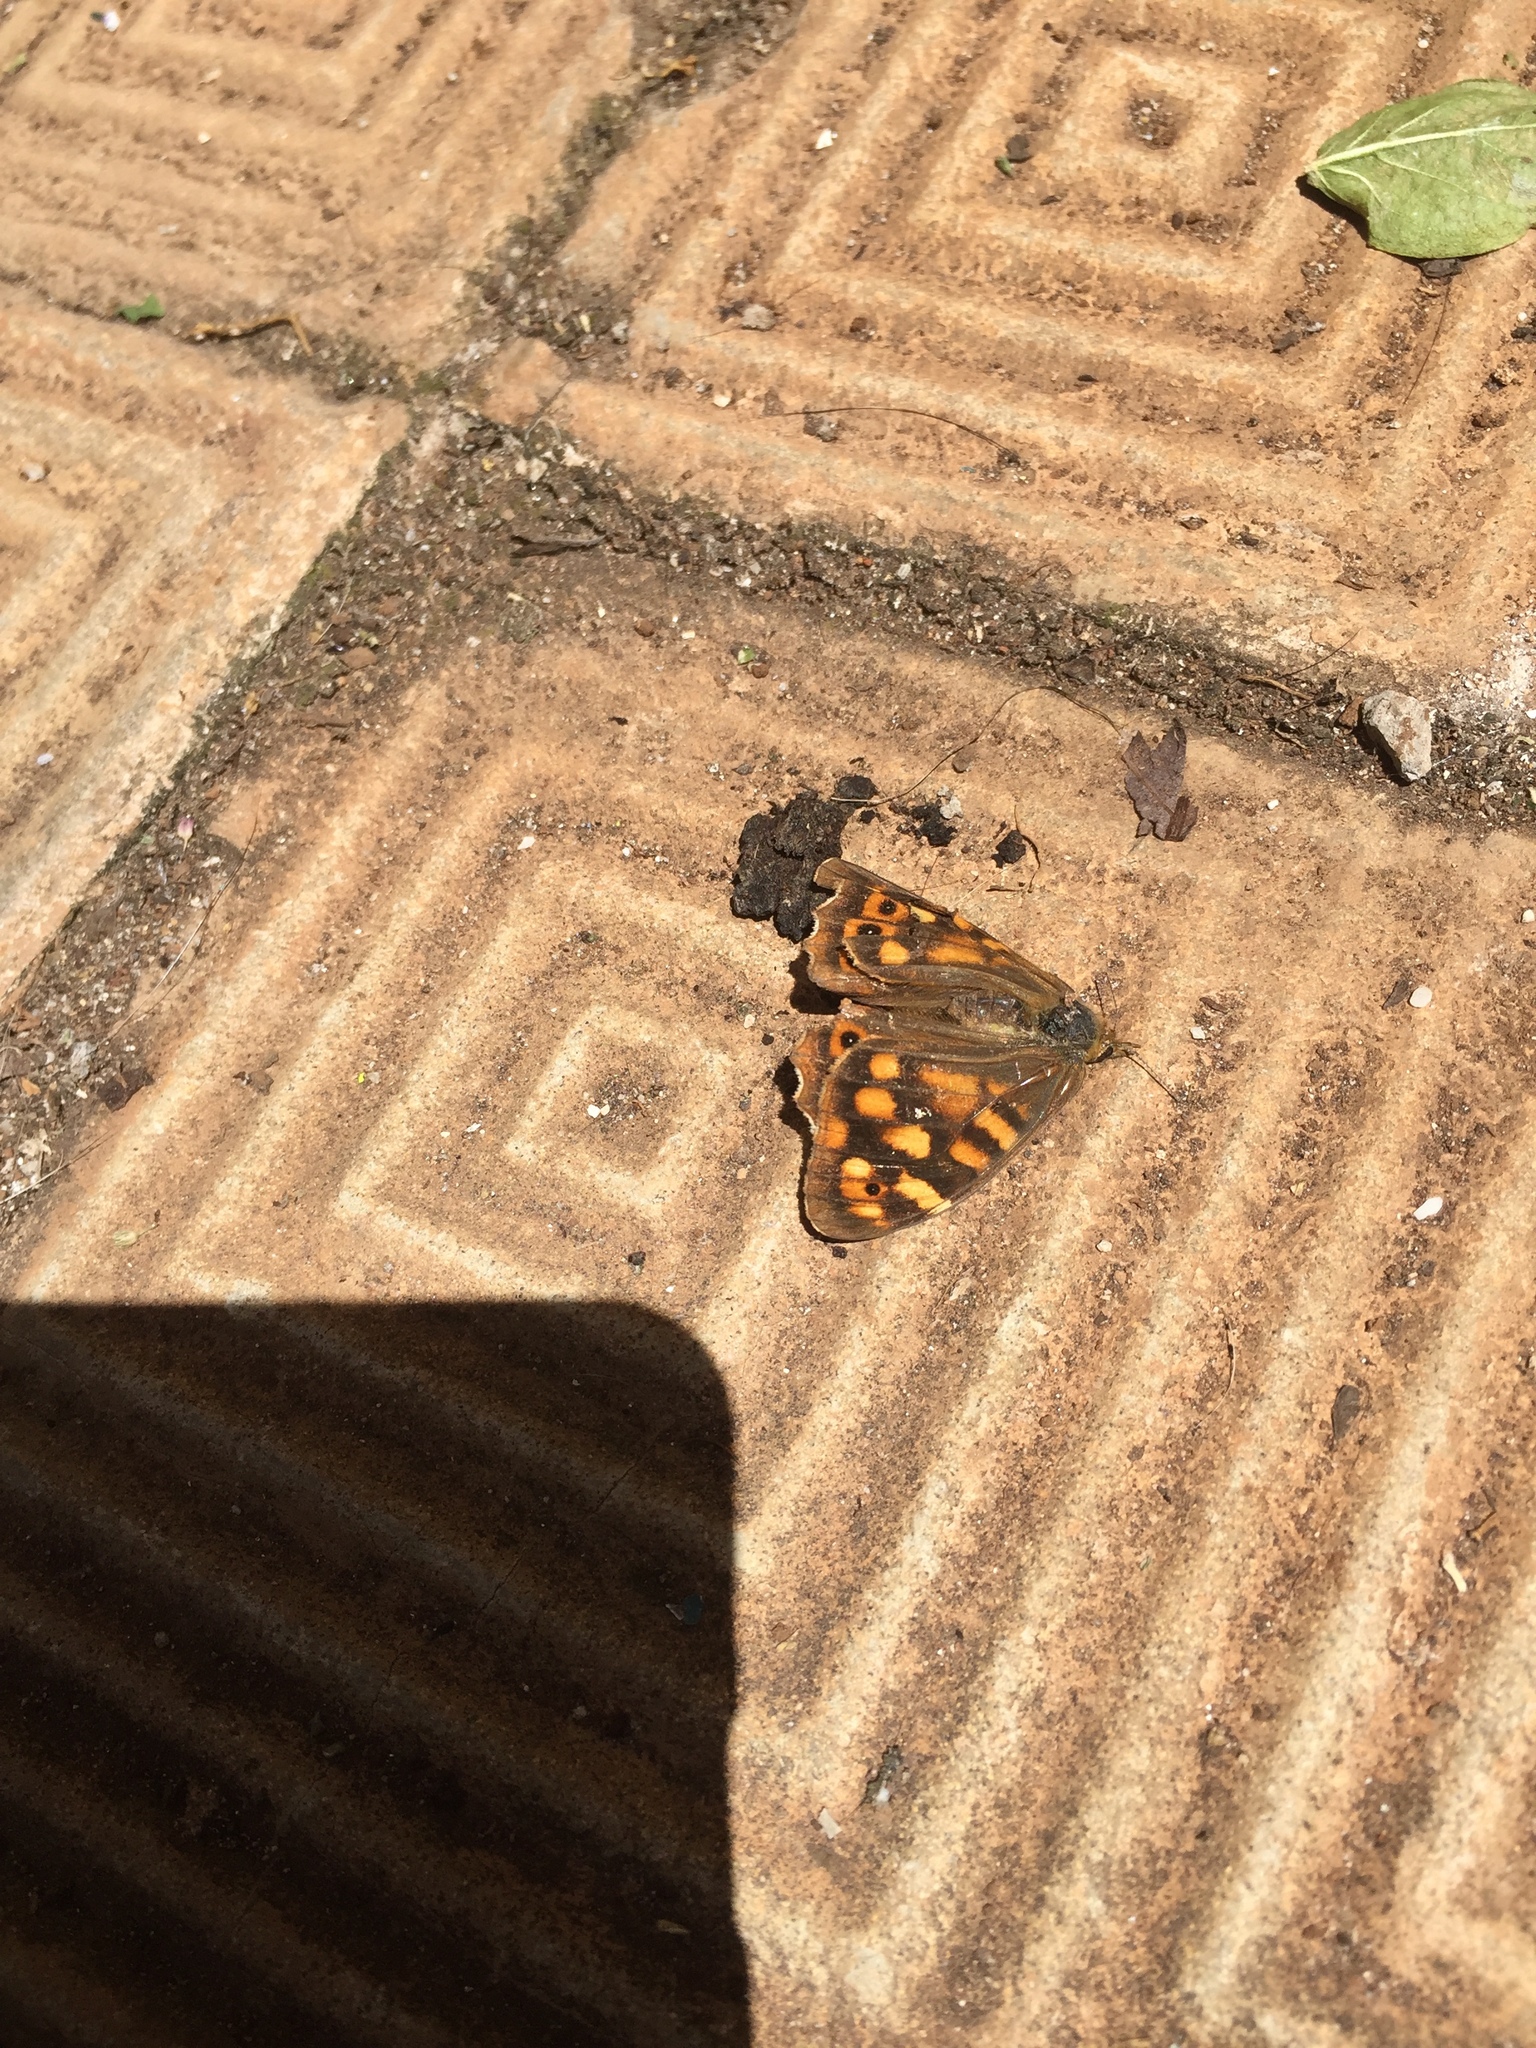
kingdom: Animalia
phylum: Arthropoda
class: Insecta
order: Lepidoptera
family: Nymphalidae
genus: Pararge
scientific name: Pararge aegeria
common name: Speckled wood
